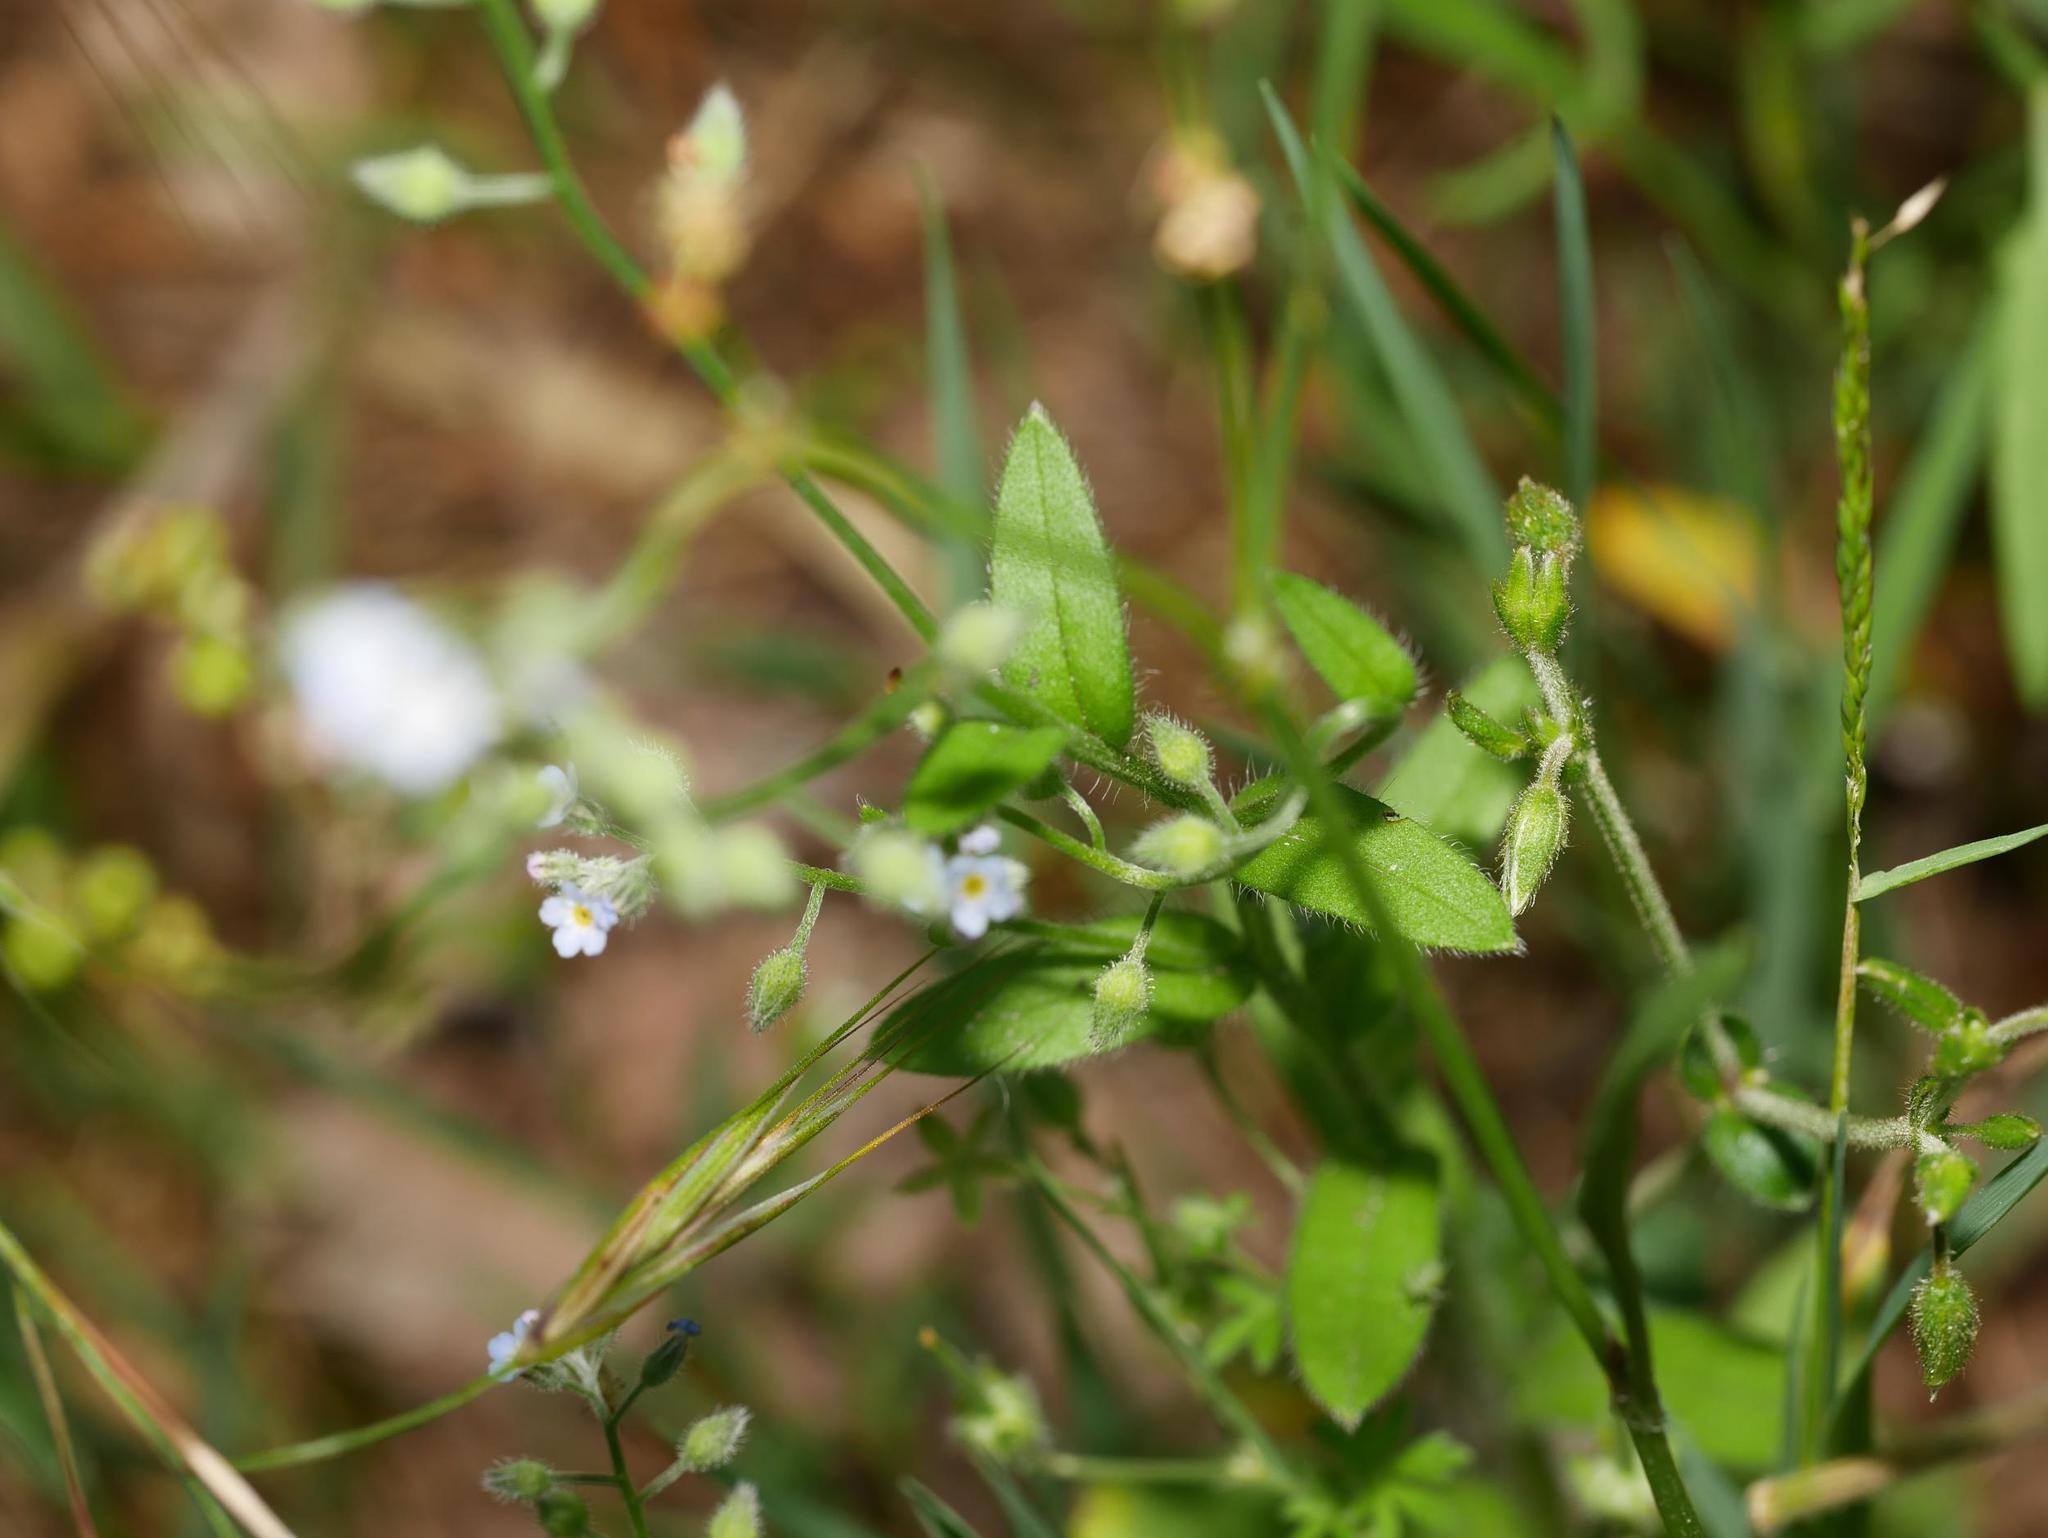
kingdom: Plantae
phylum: Tracheophyta
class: Magnoliopsida
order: Caryophyllales
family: Caryophyllaceae
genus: Stellaria
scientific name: Stellaria media
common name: Common chickweed
